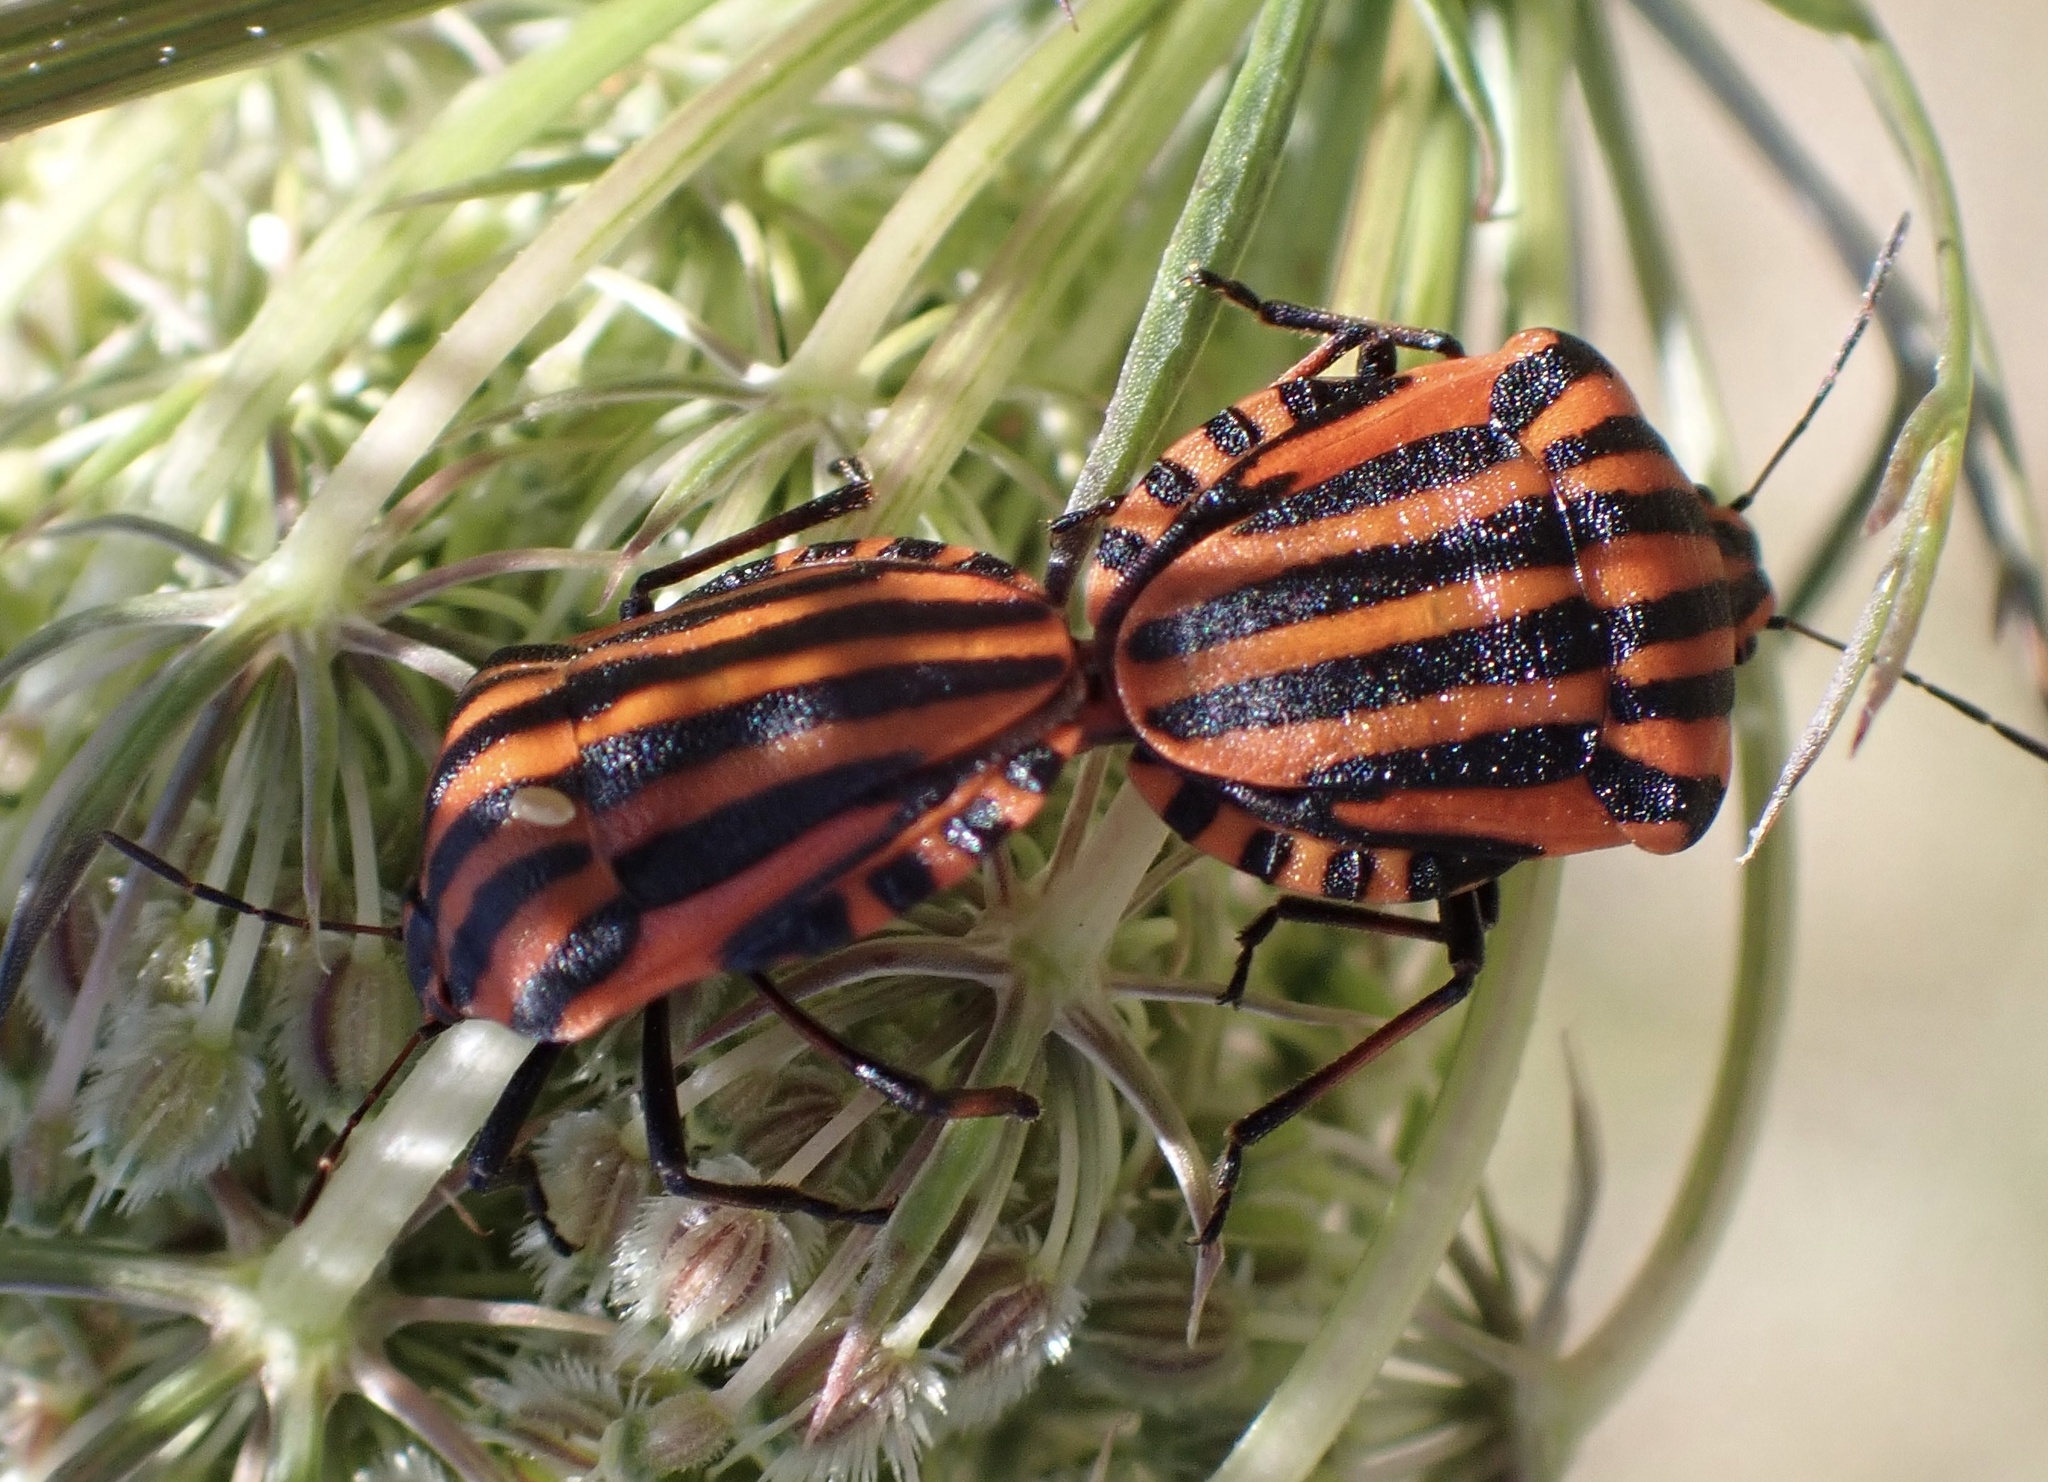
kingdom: Animalia
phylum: Arthropoda
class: Insecta
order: Hemiptera
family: Pentatomidae
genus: Graphosoma
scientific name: Graphosoma italicum
